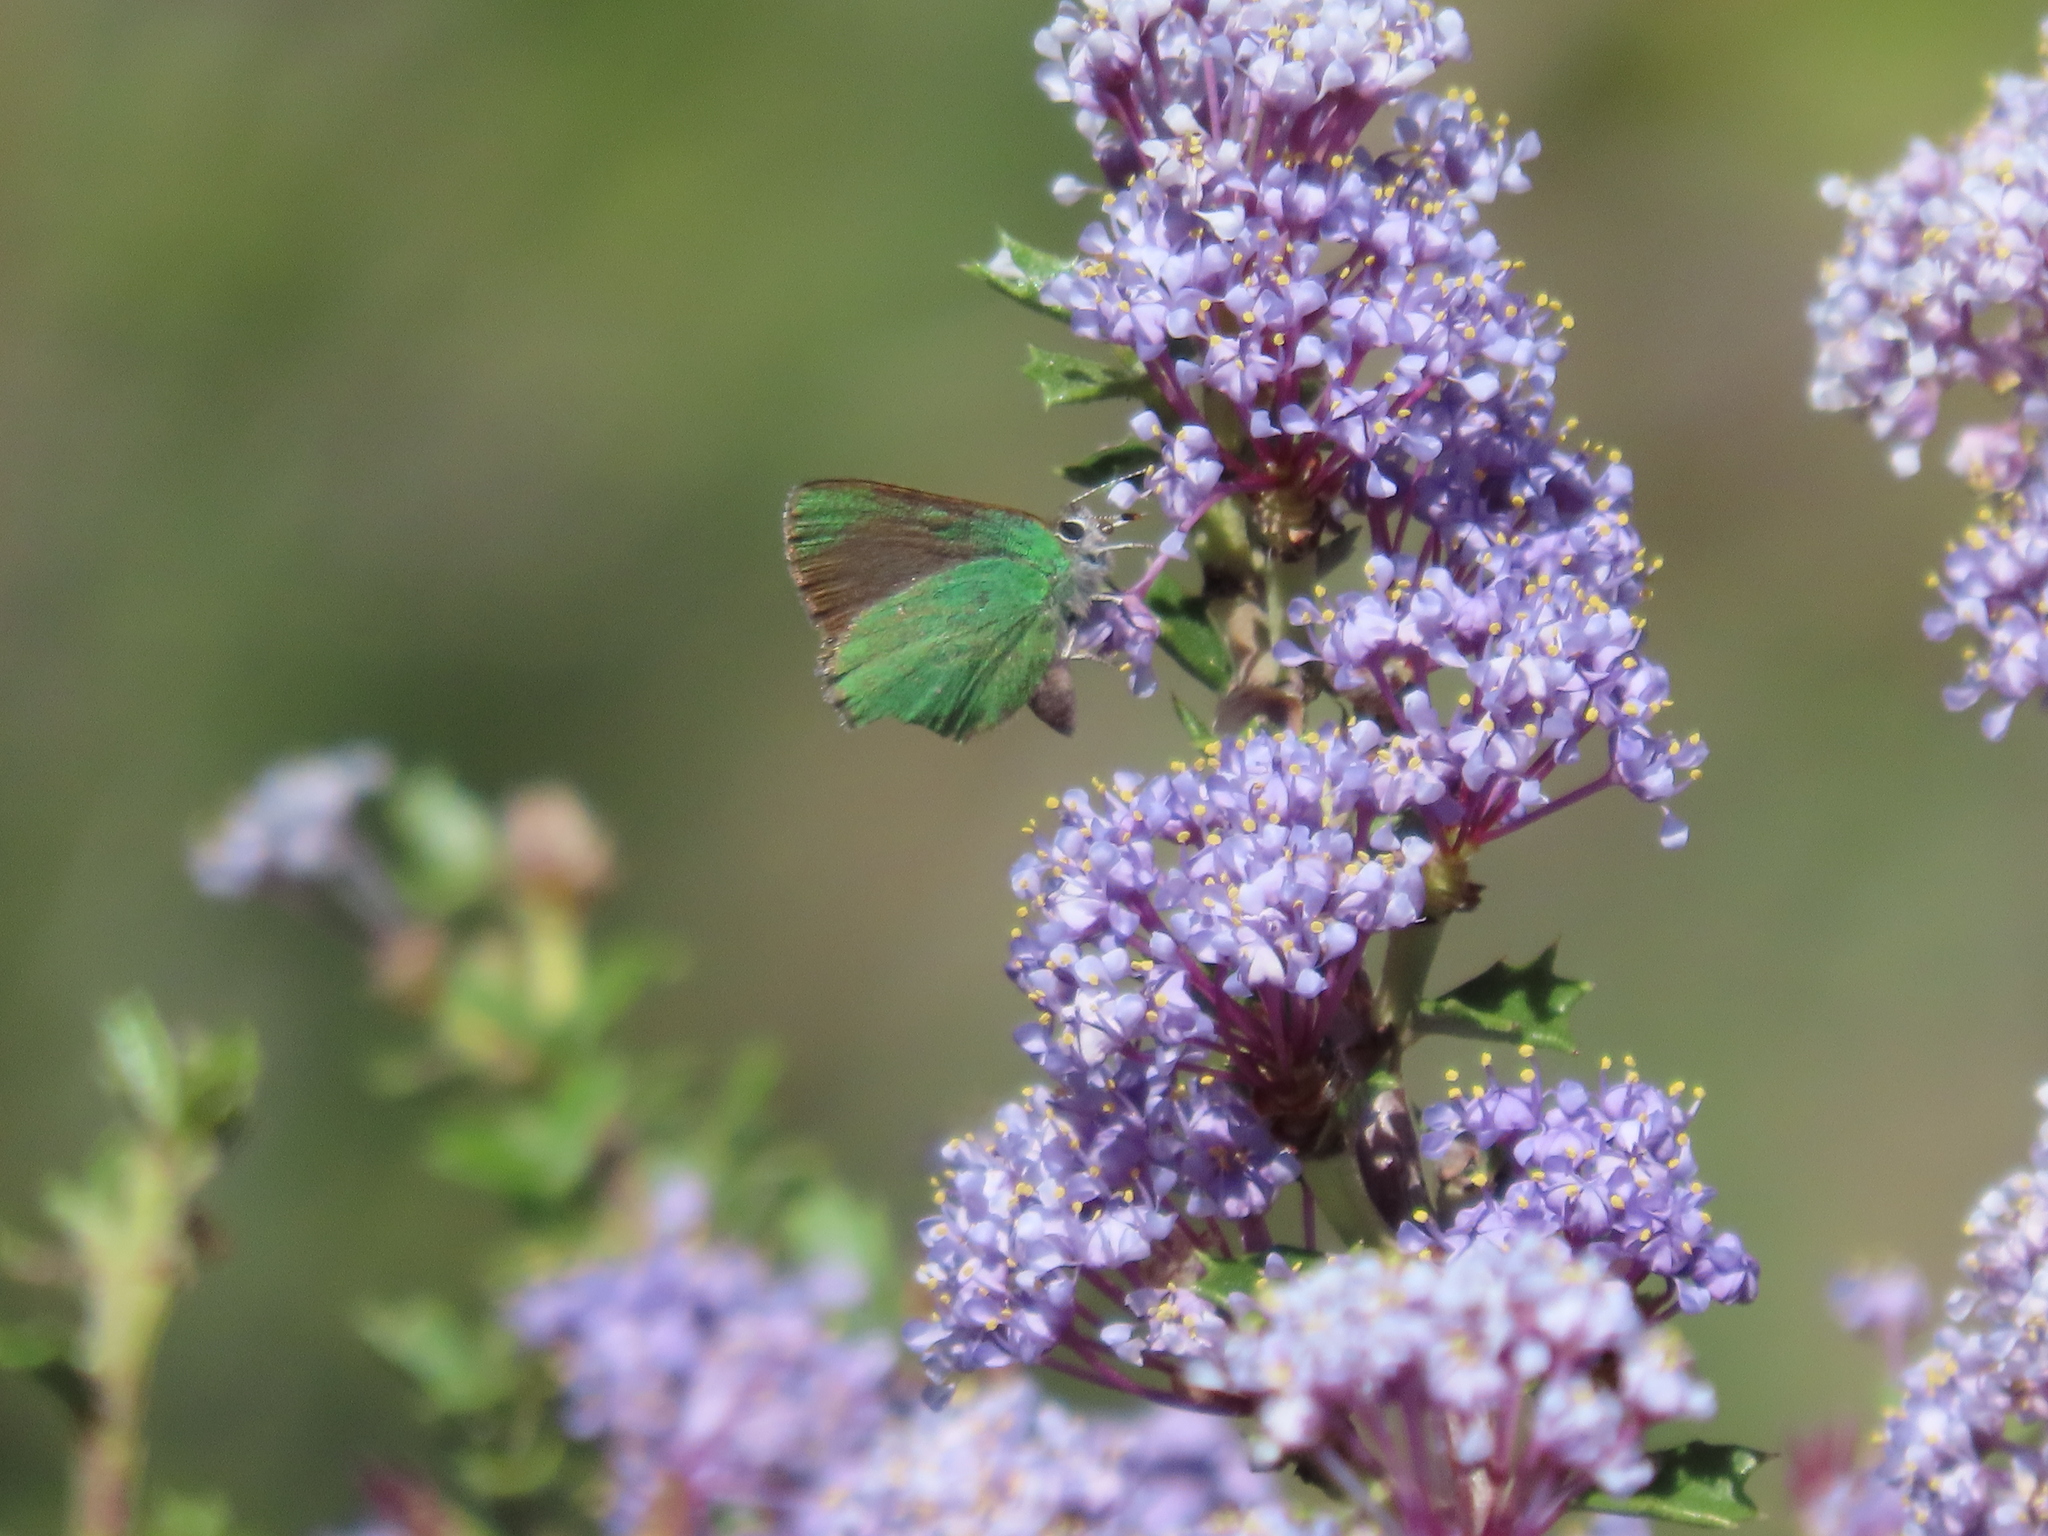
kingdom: Plantae
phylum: Tracheophyta
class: Magnoliopsida
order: Rosales
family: Rhamnaceae
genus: Ceanothus
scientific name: Ceanothus jepsonii
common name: Muskbrush
